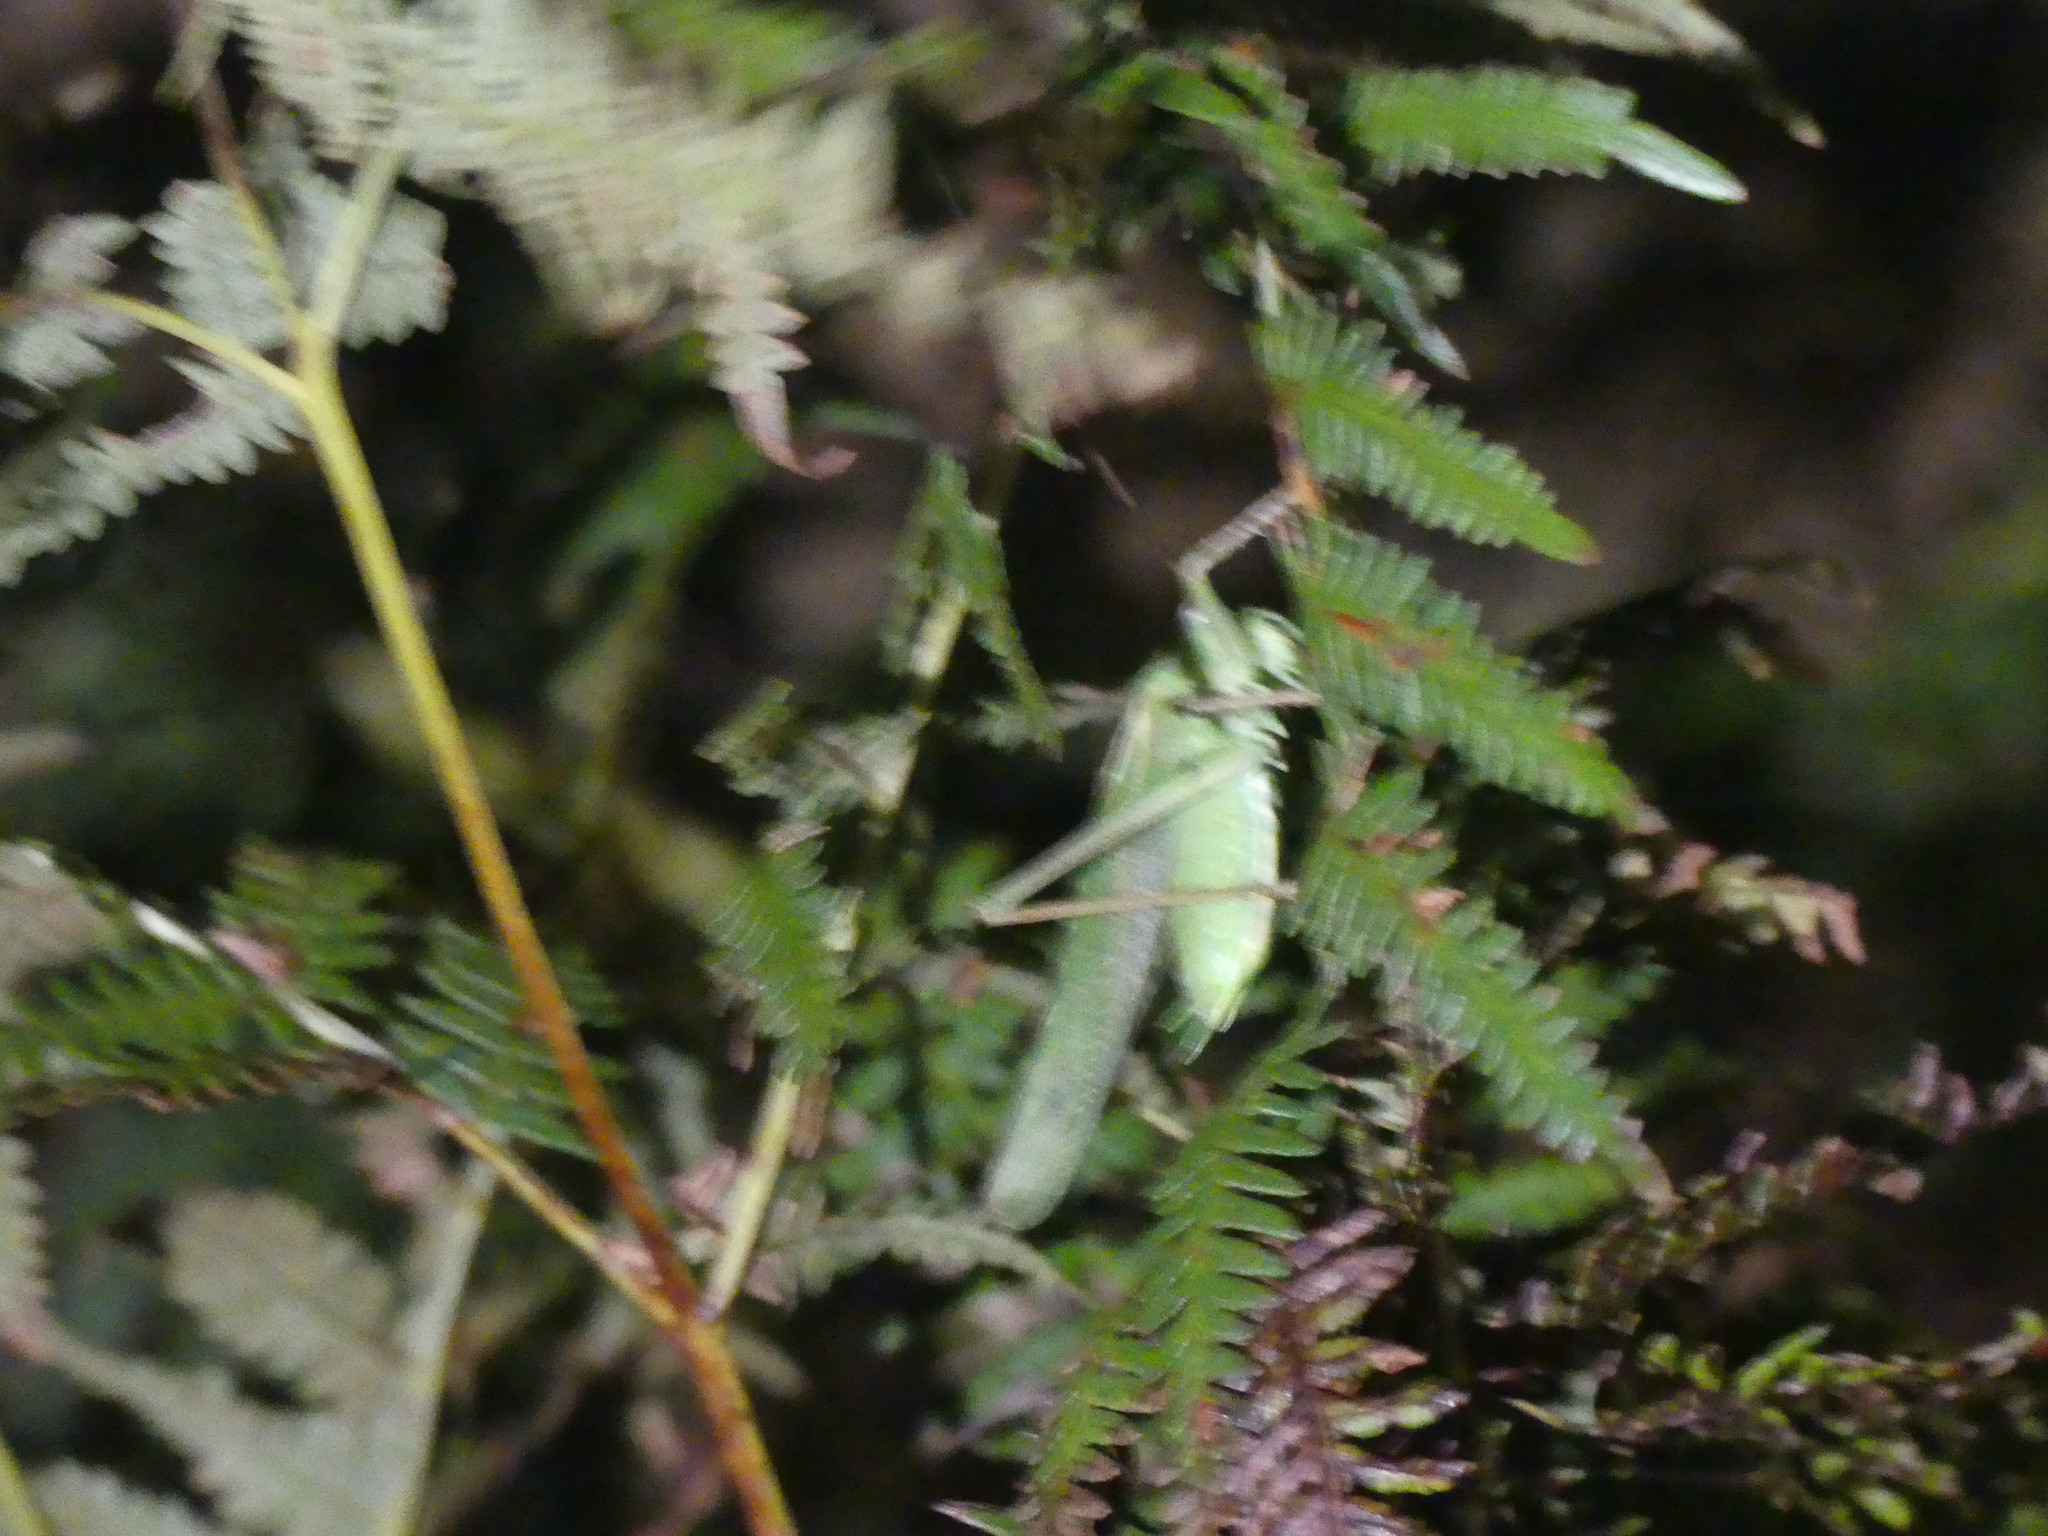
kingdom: Animalia
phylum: Arthropoda
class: Insecta
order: Orthoptera
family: Tettigoniidae
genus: Tettigonia
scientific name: Tettigonia viridissima
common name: Great green bush-cricket
